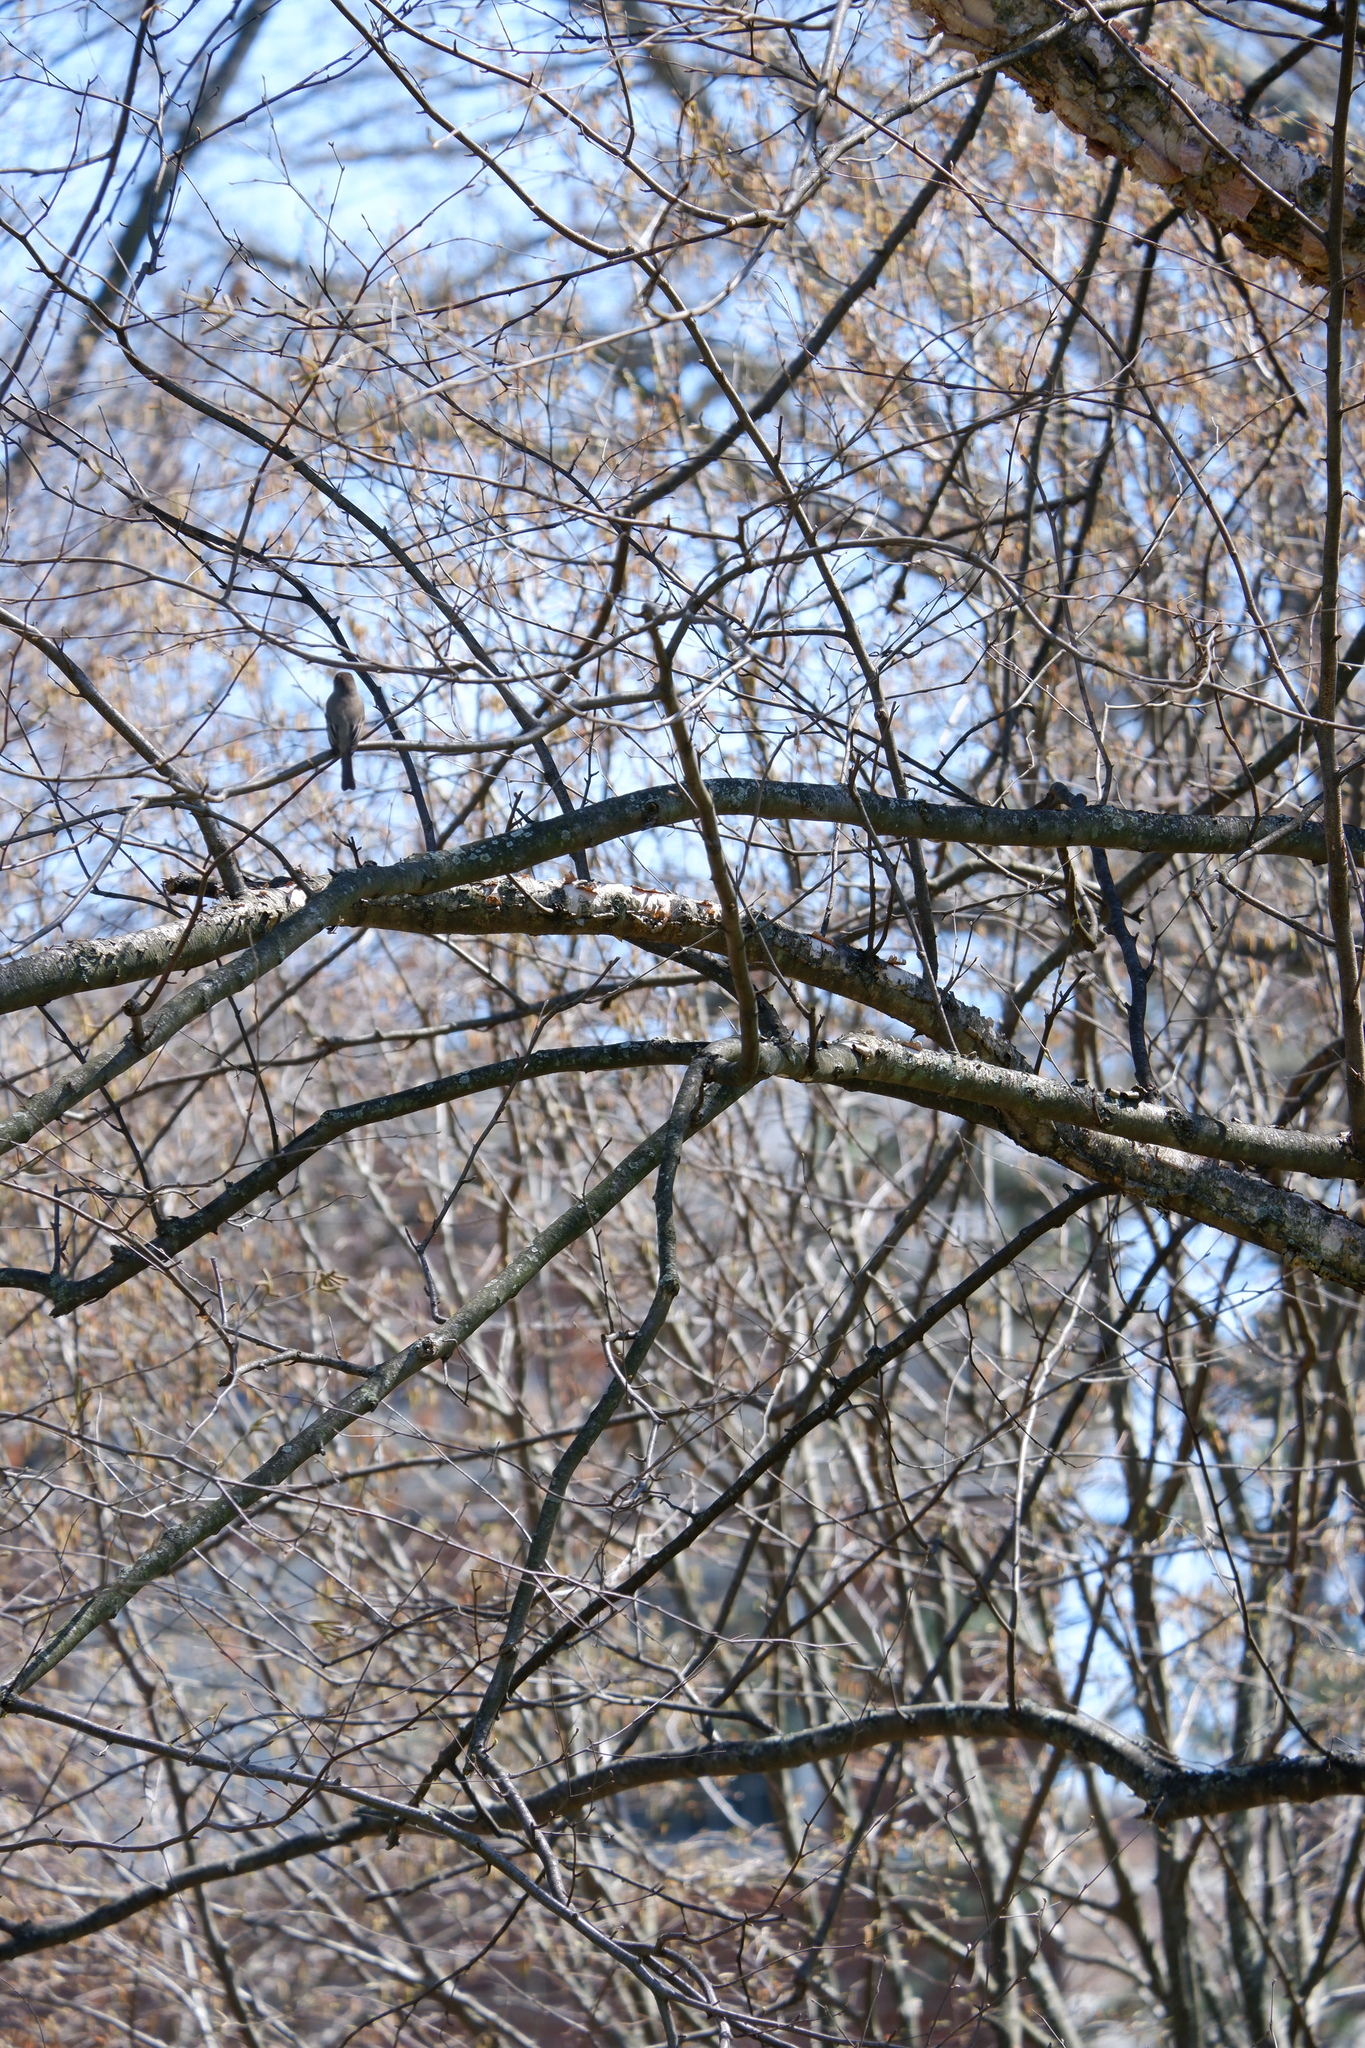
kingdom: Animalia
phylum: Chordata
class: Aves
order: Passeriformes
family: Tyrannidae
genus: Sayornis
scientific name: Sayornis phoebe
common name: Eastern phoebe
